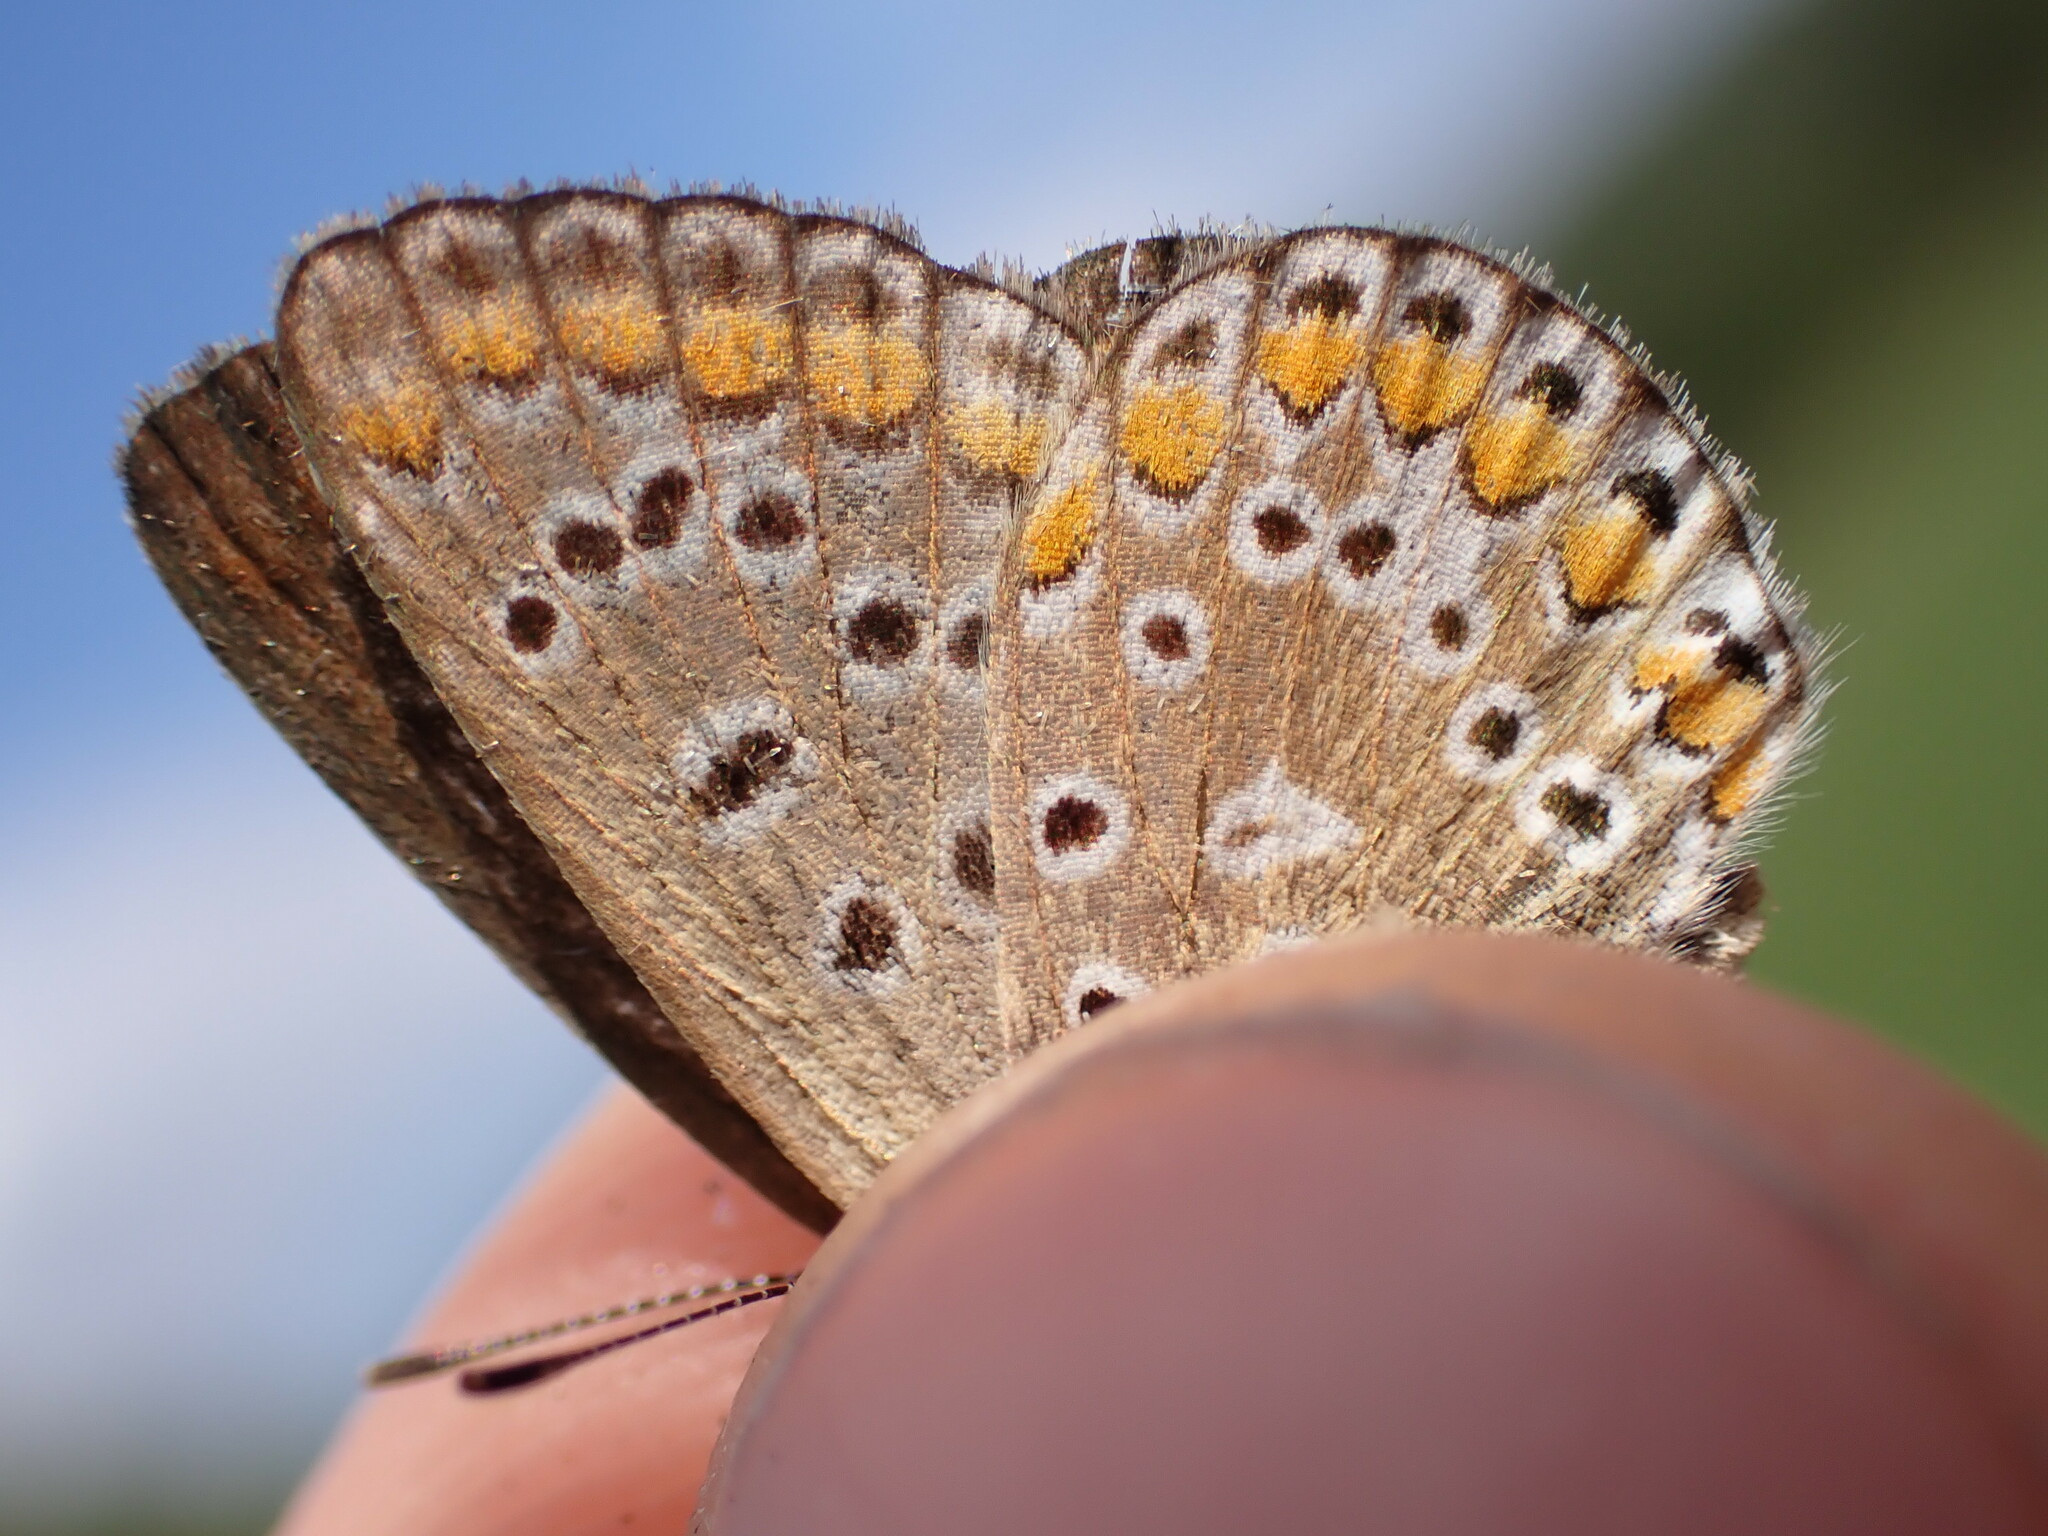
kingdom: Animalia
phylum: Arthropoda
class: Insecta
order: Lepidoptera
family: Lycaenidae
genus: Polyommatus
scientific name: Polyommatus icarus
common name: Common blue
